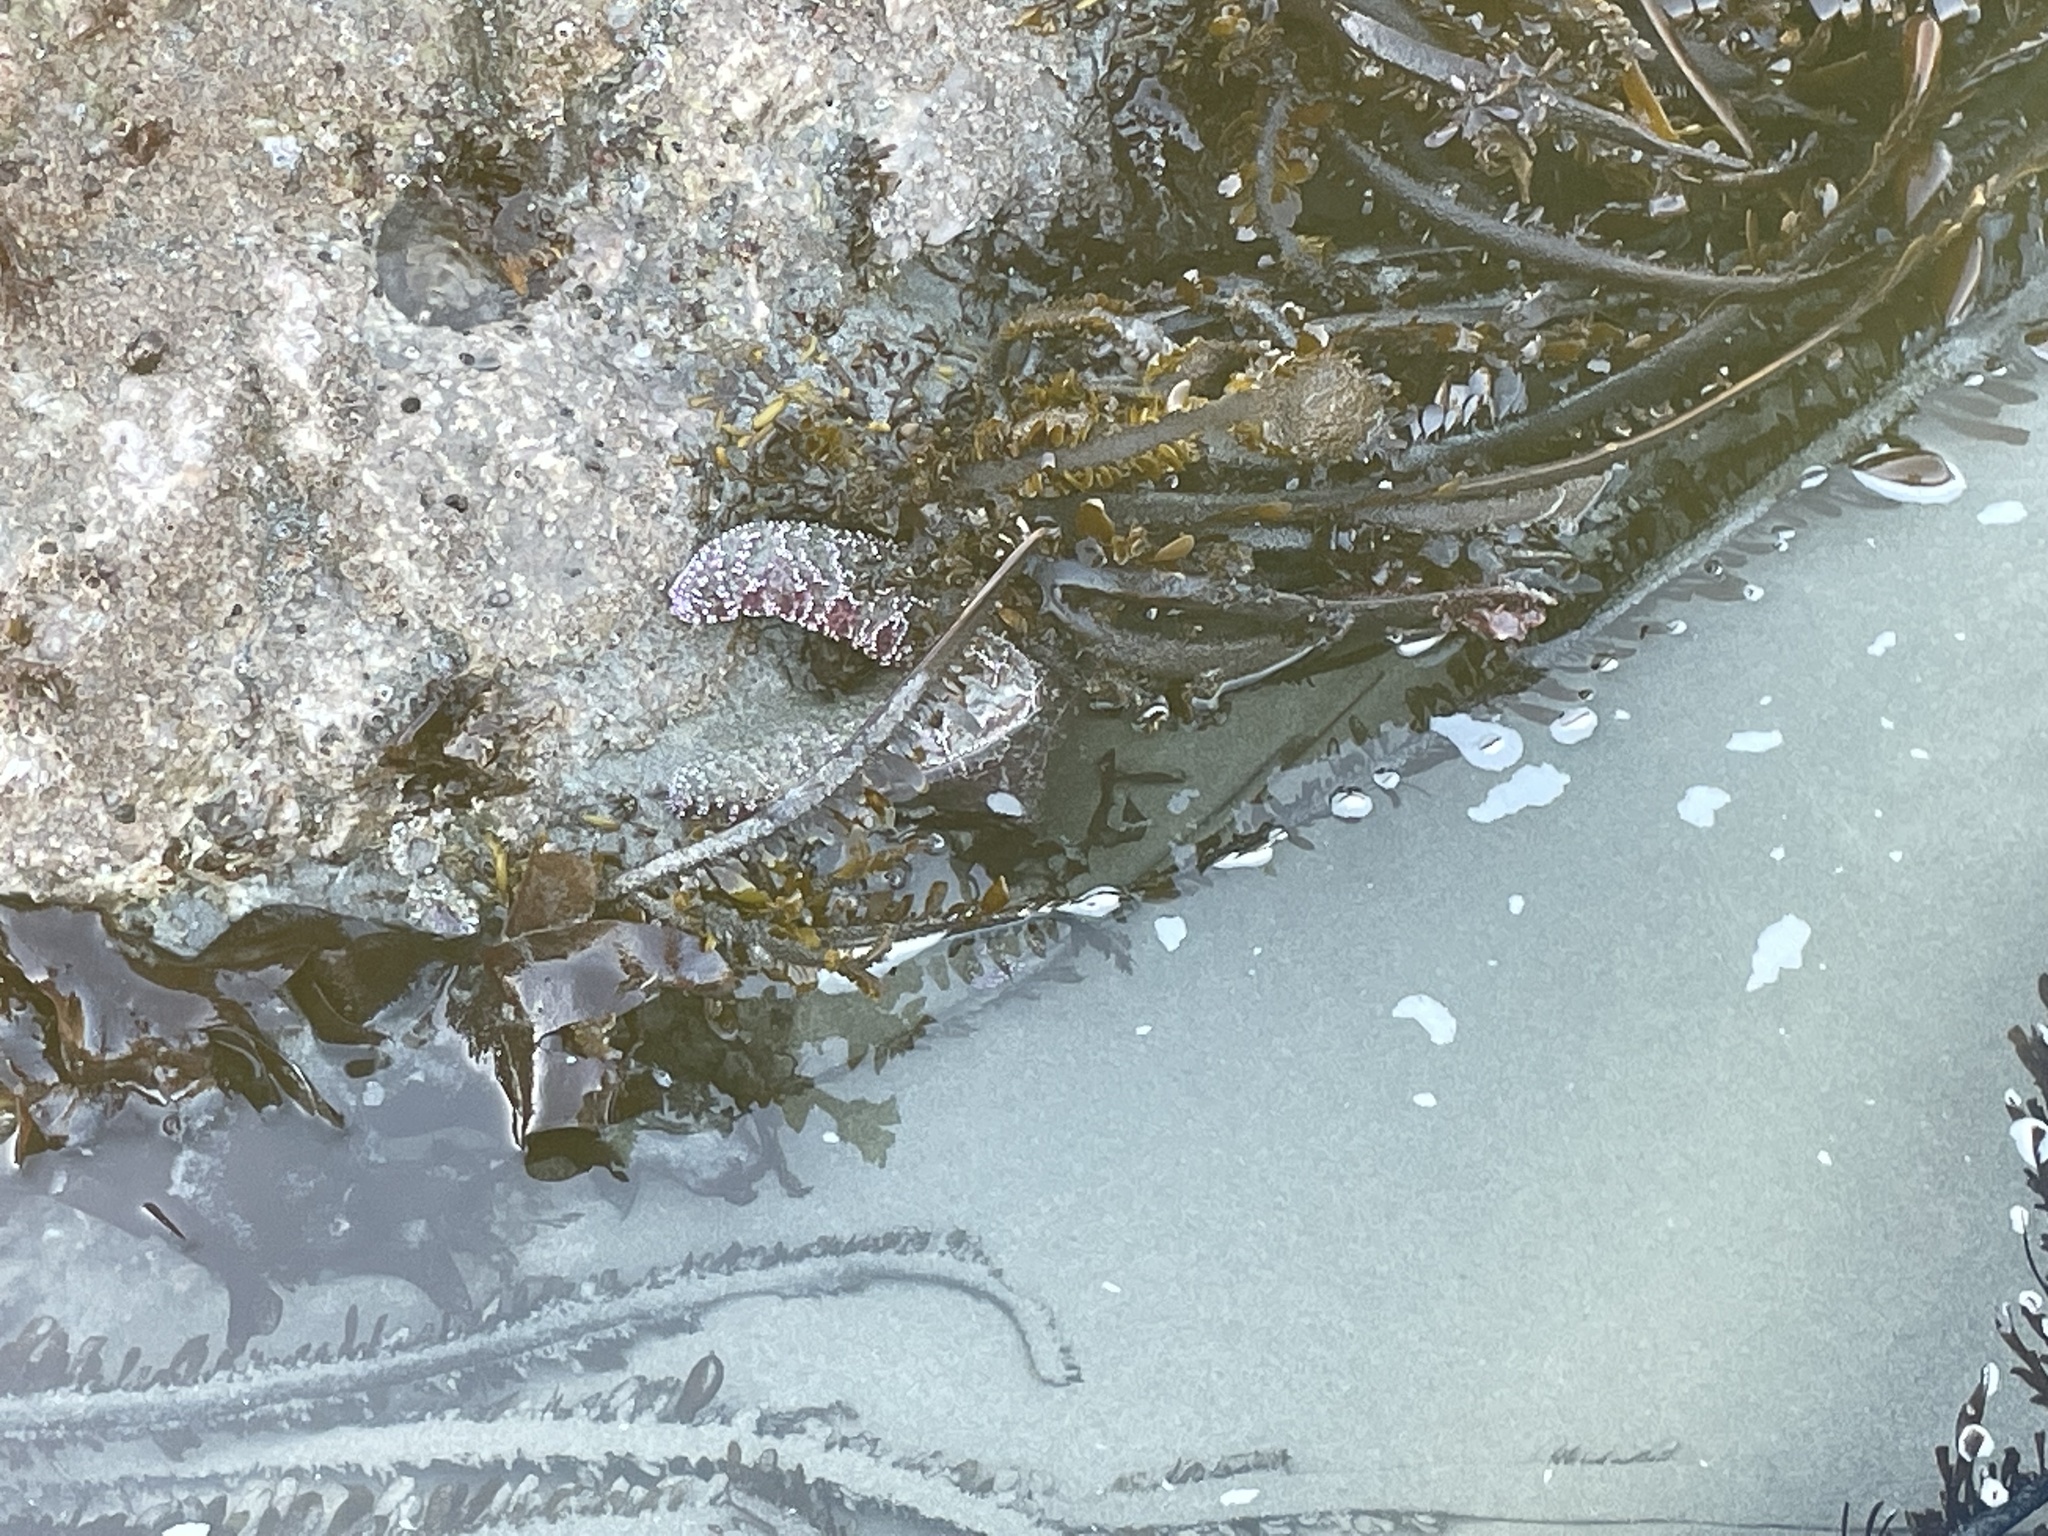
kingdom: Animalia
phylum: Echinodermata
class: Asteroidea
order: Forcipulatida
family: Asteriidae
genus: Pisaster
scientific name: Pisaster ochraceus
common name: Ochre stars
